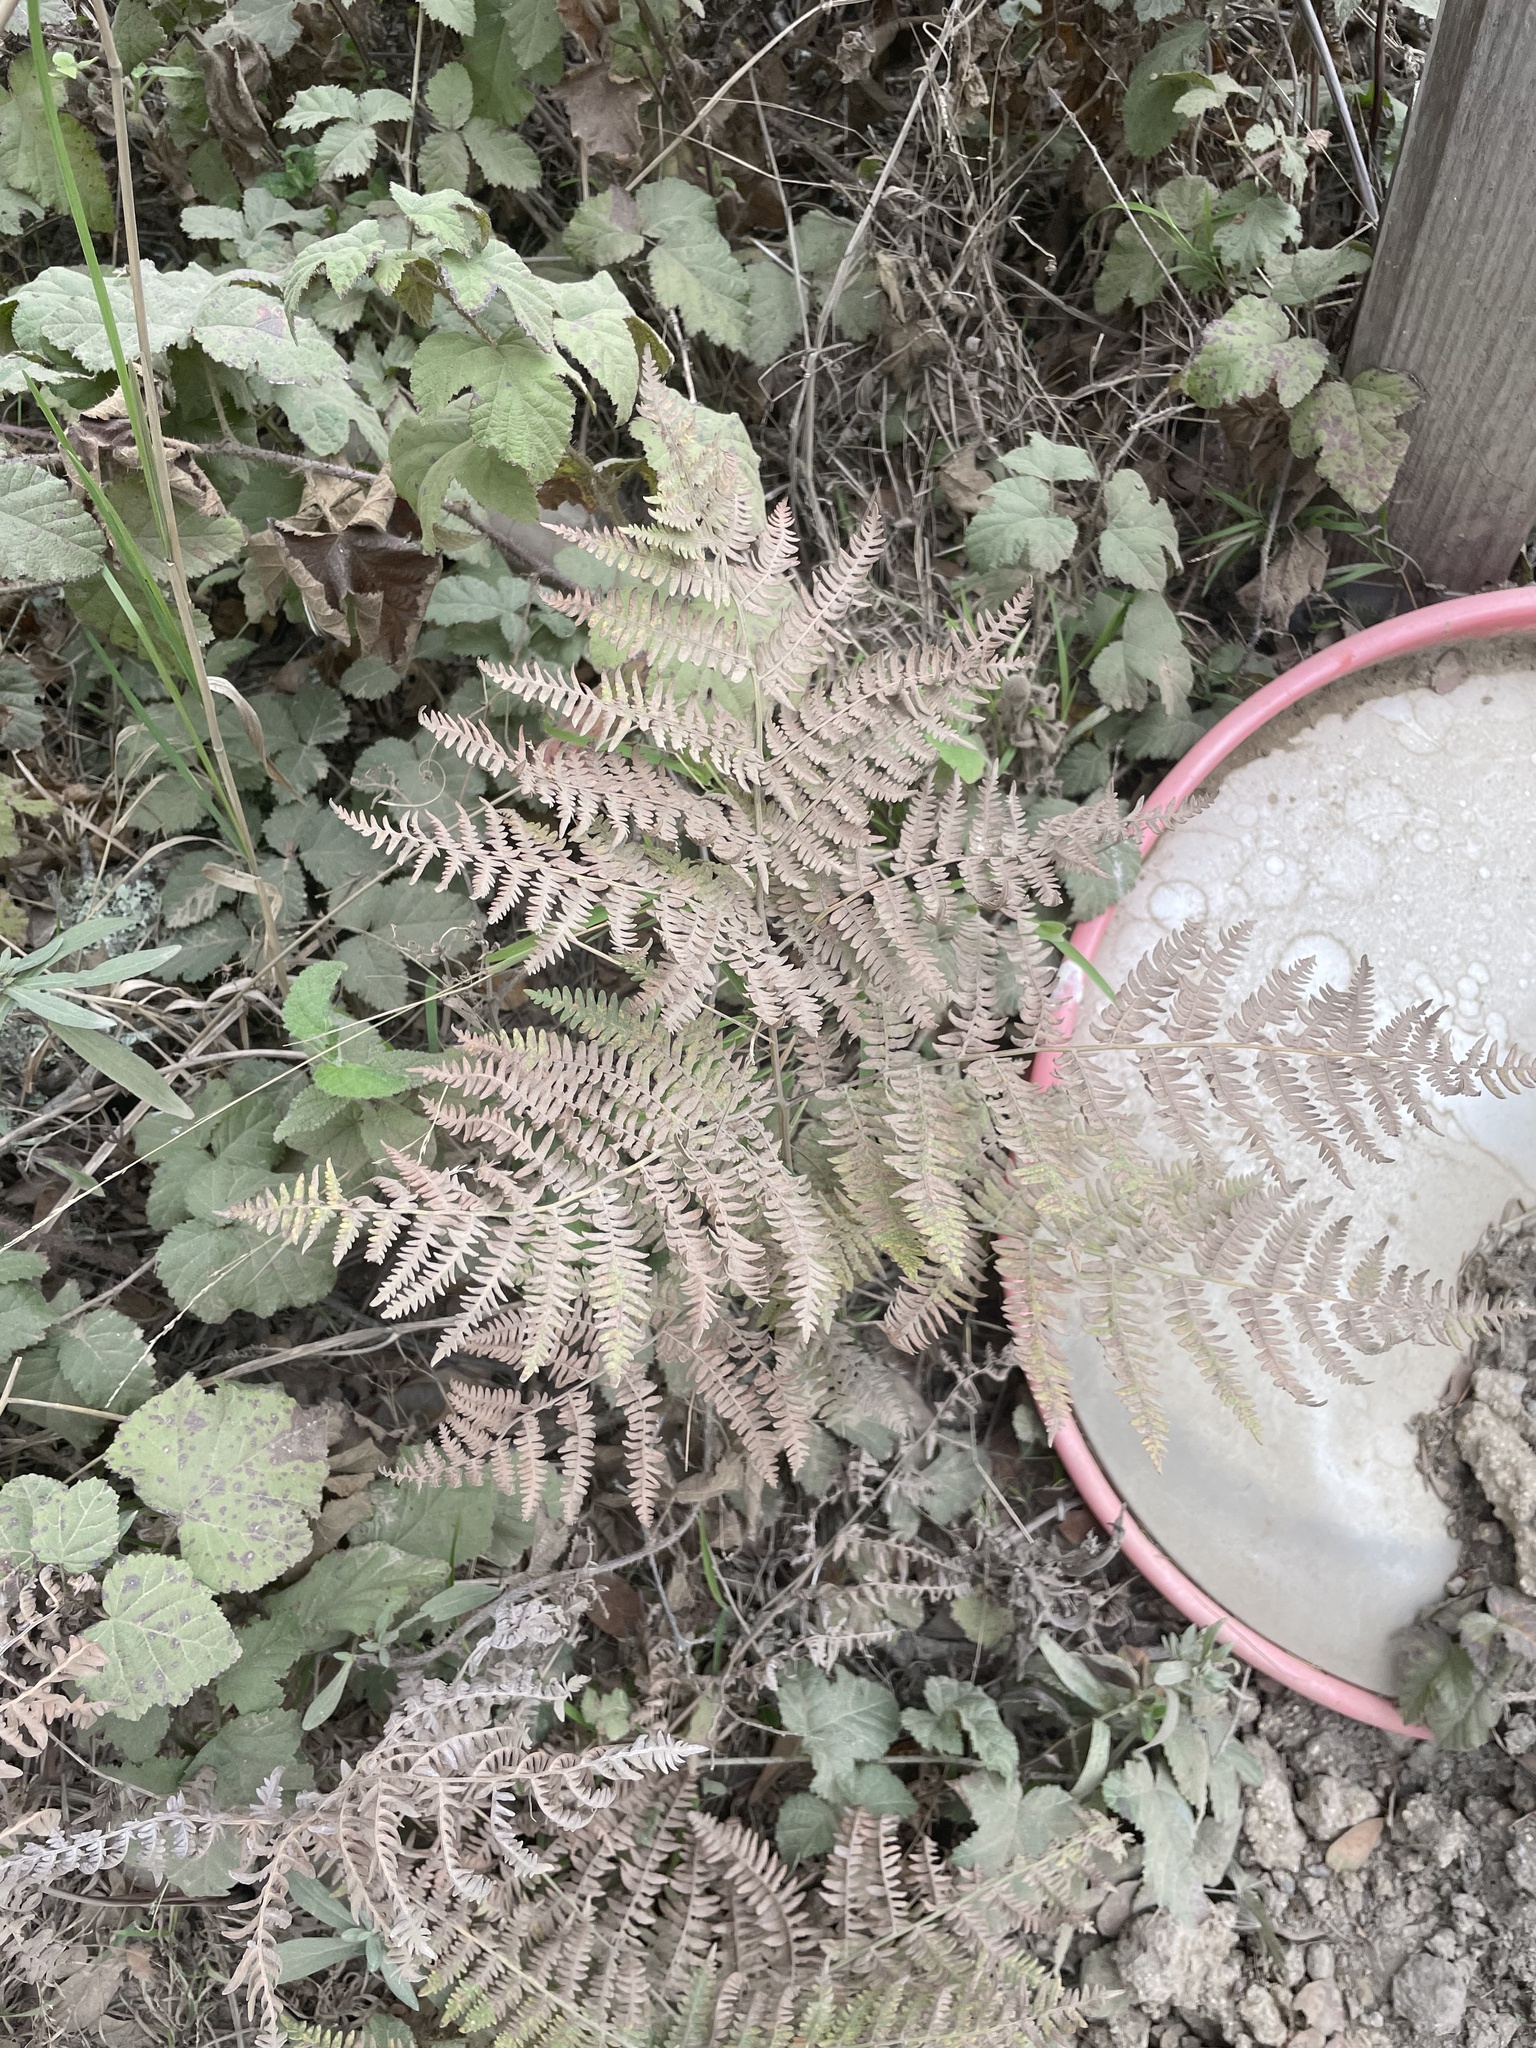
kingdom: Plantae
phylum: Tracheophyta
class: Polypodiopsida
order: Polypodiales
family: Dennstaedtiaceae
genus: Pteridium
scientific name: Pteridium aquilinum
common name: Bracken
